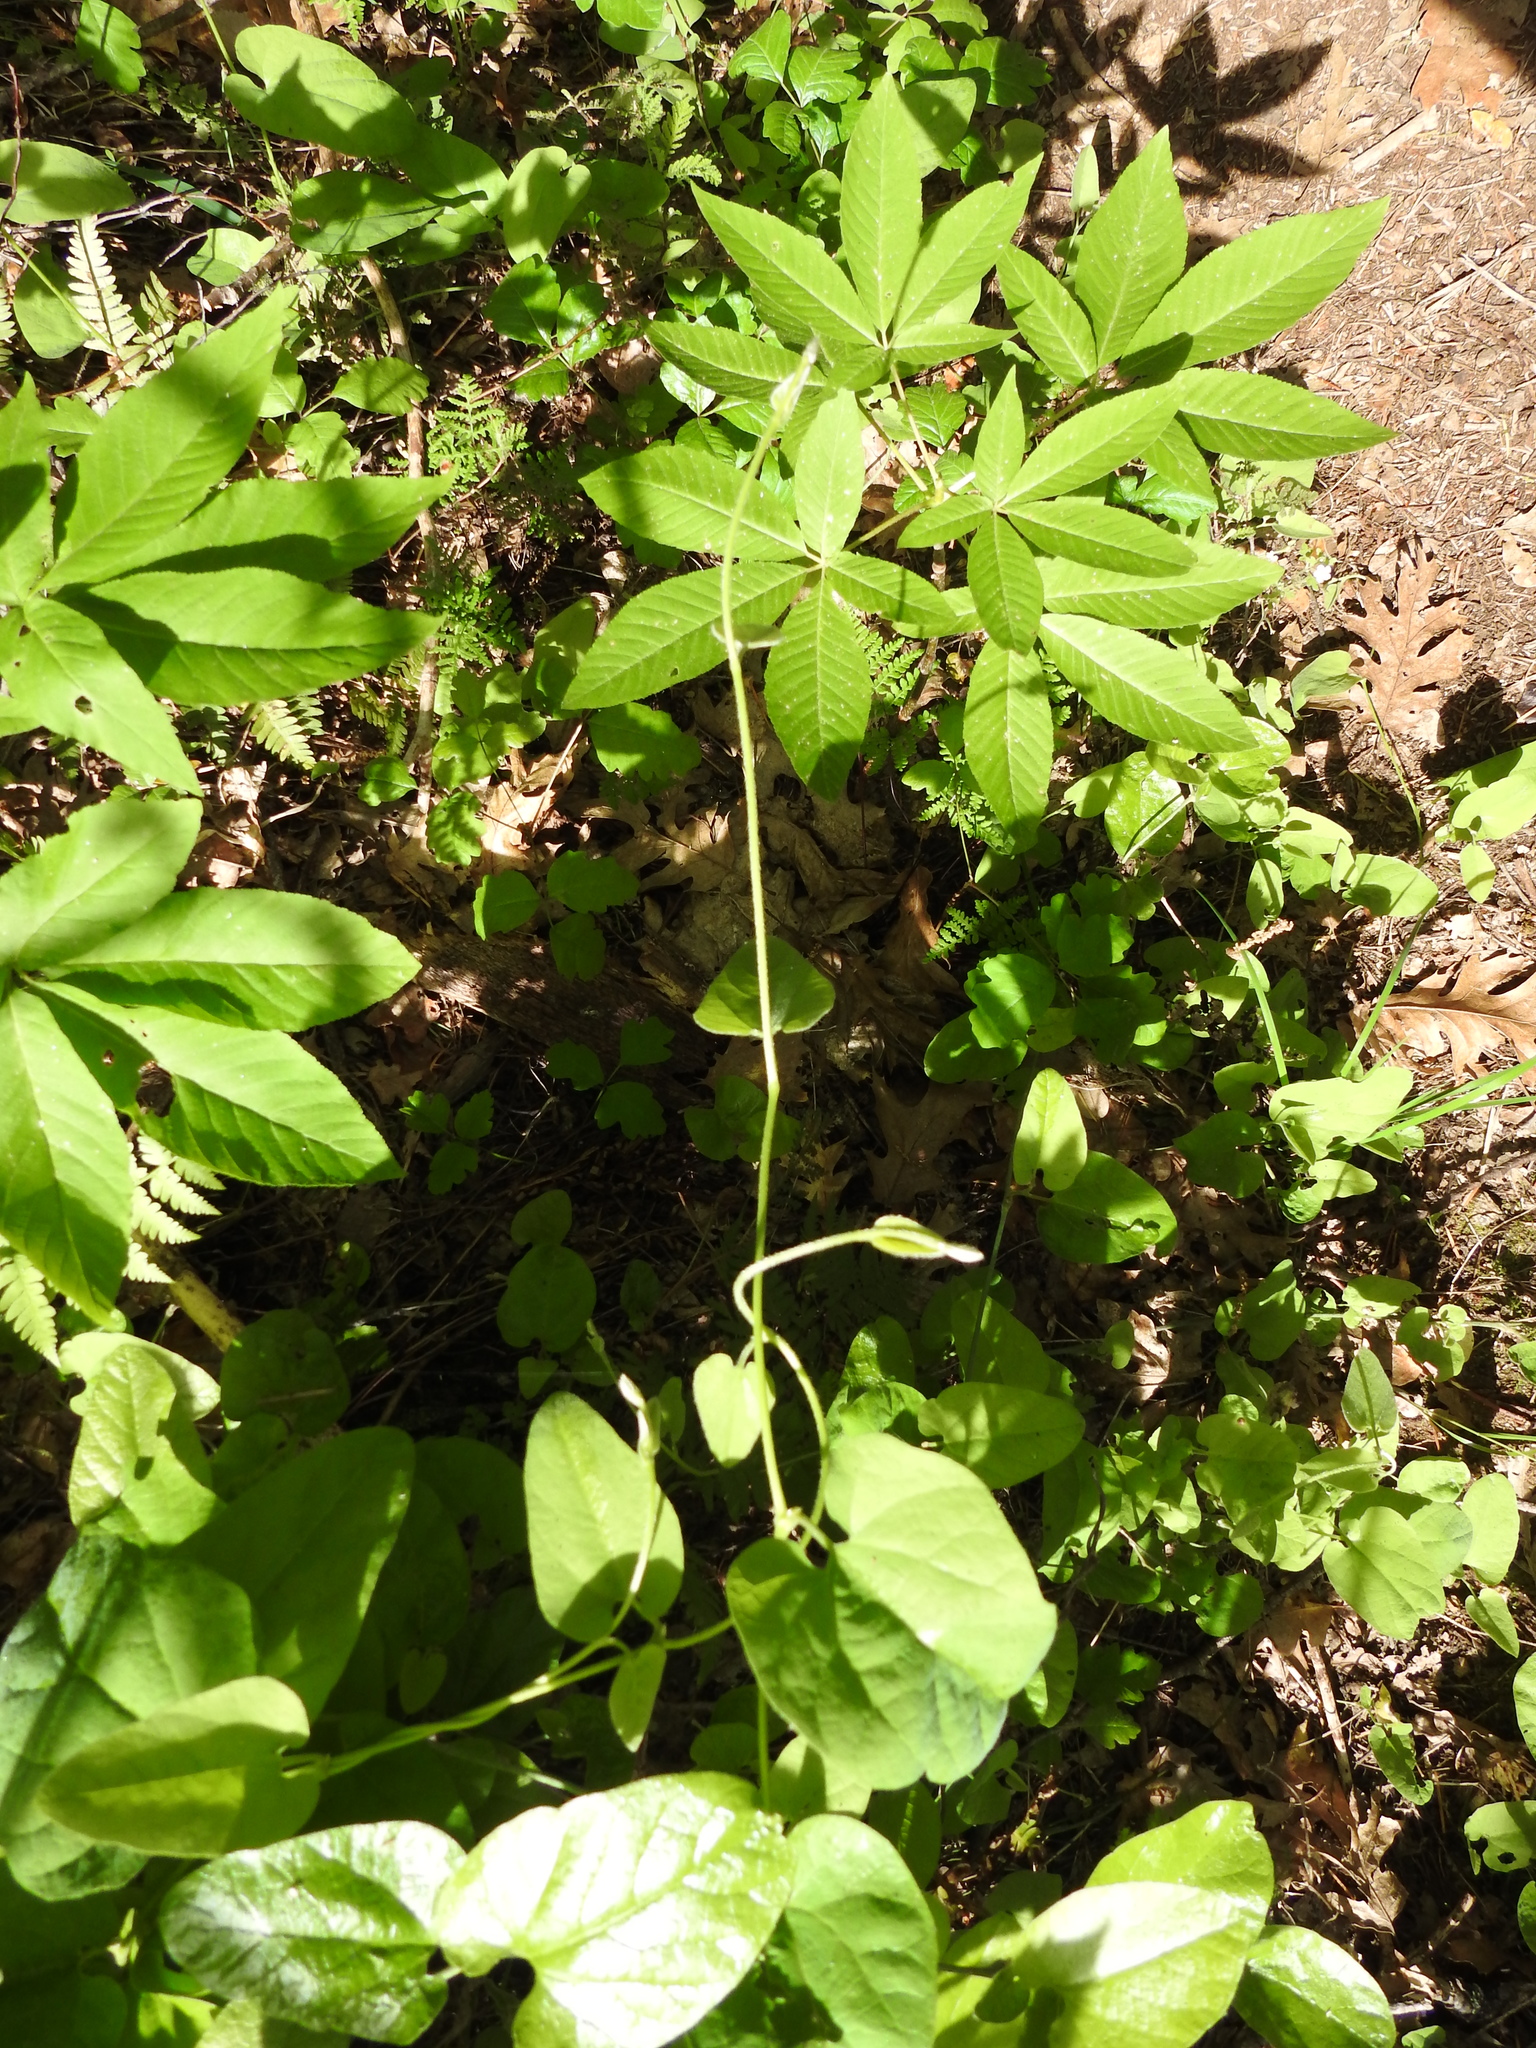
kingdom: Plantae
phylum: Tracheophyta
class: Magnoliopsida
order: Piperales
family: Aristolochiaceae
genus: Isotrema
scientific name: Isotrema californicum
